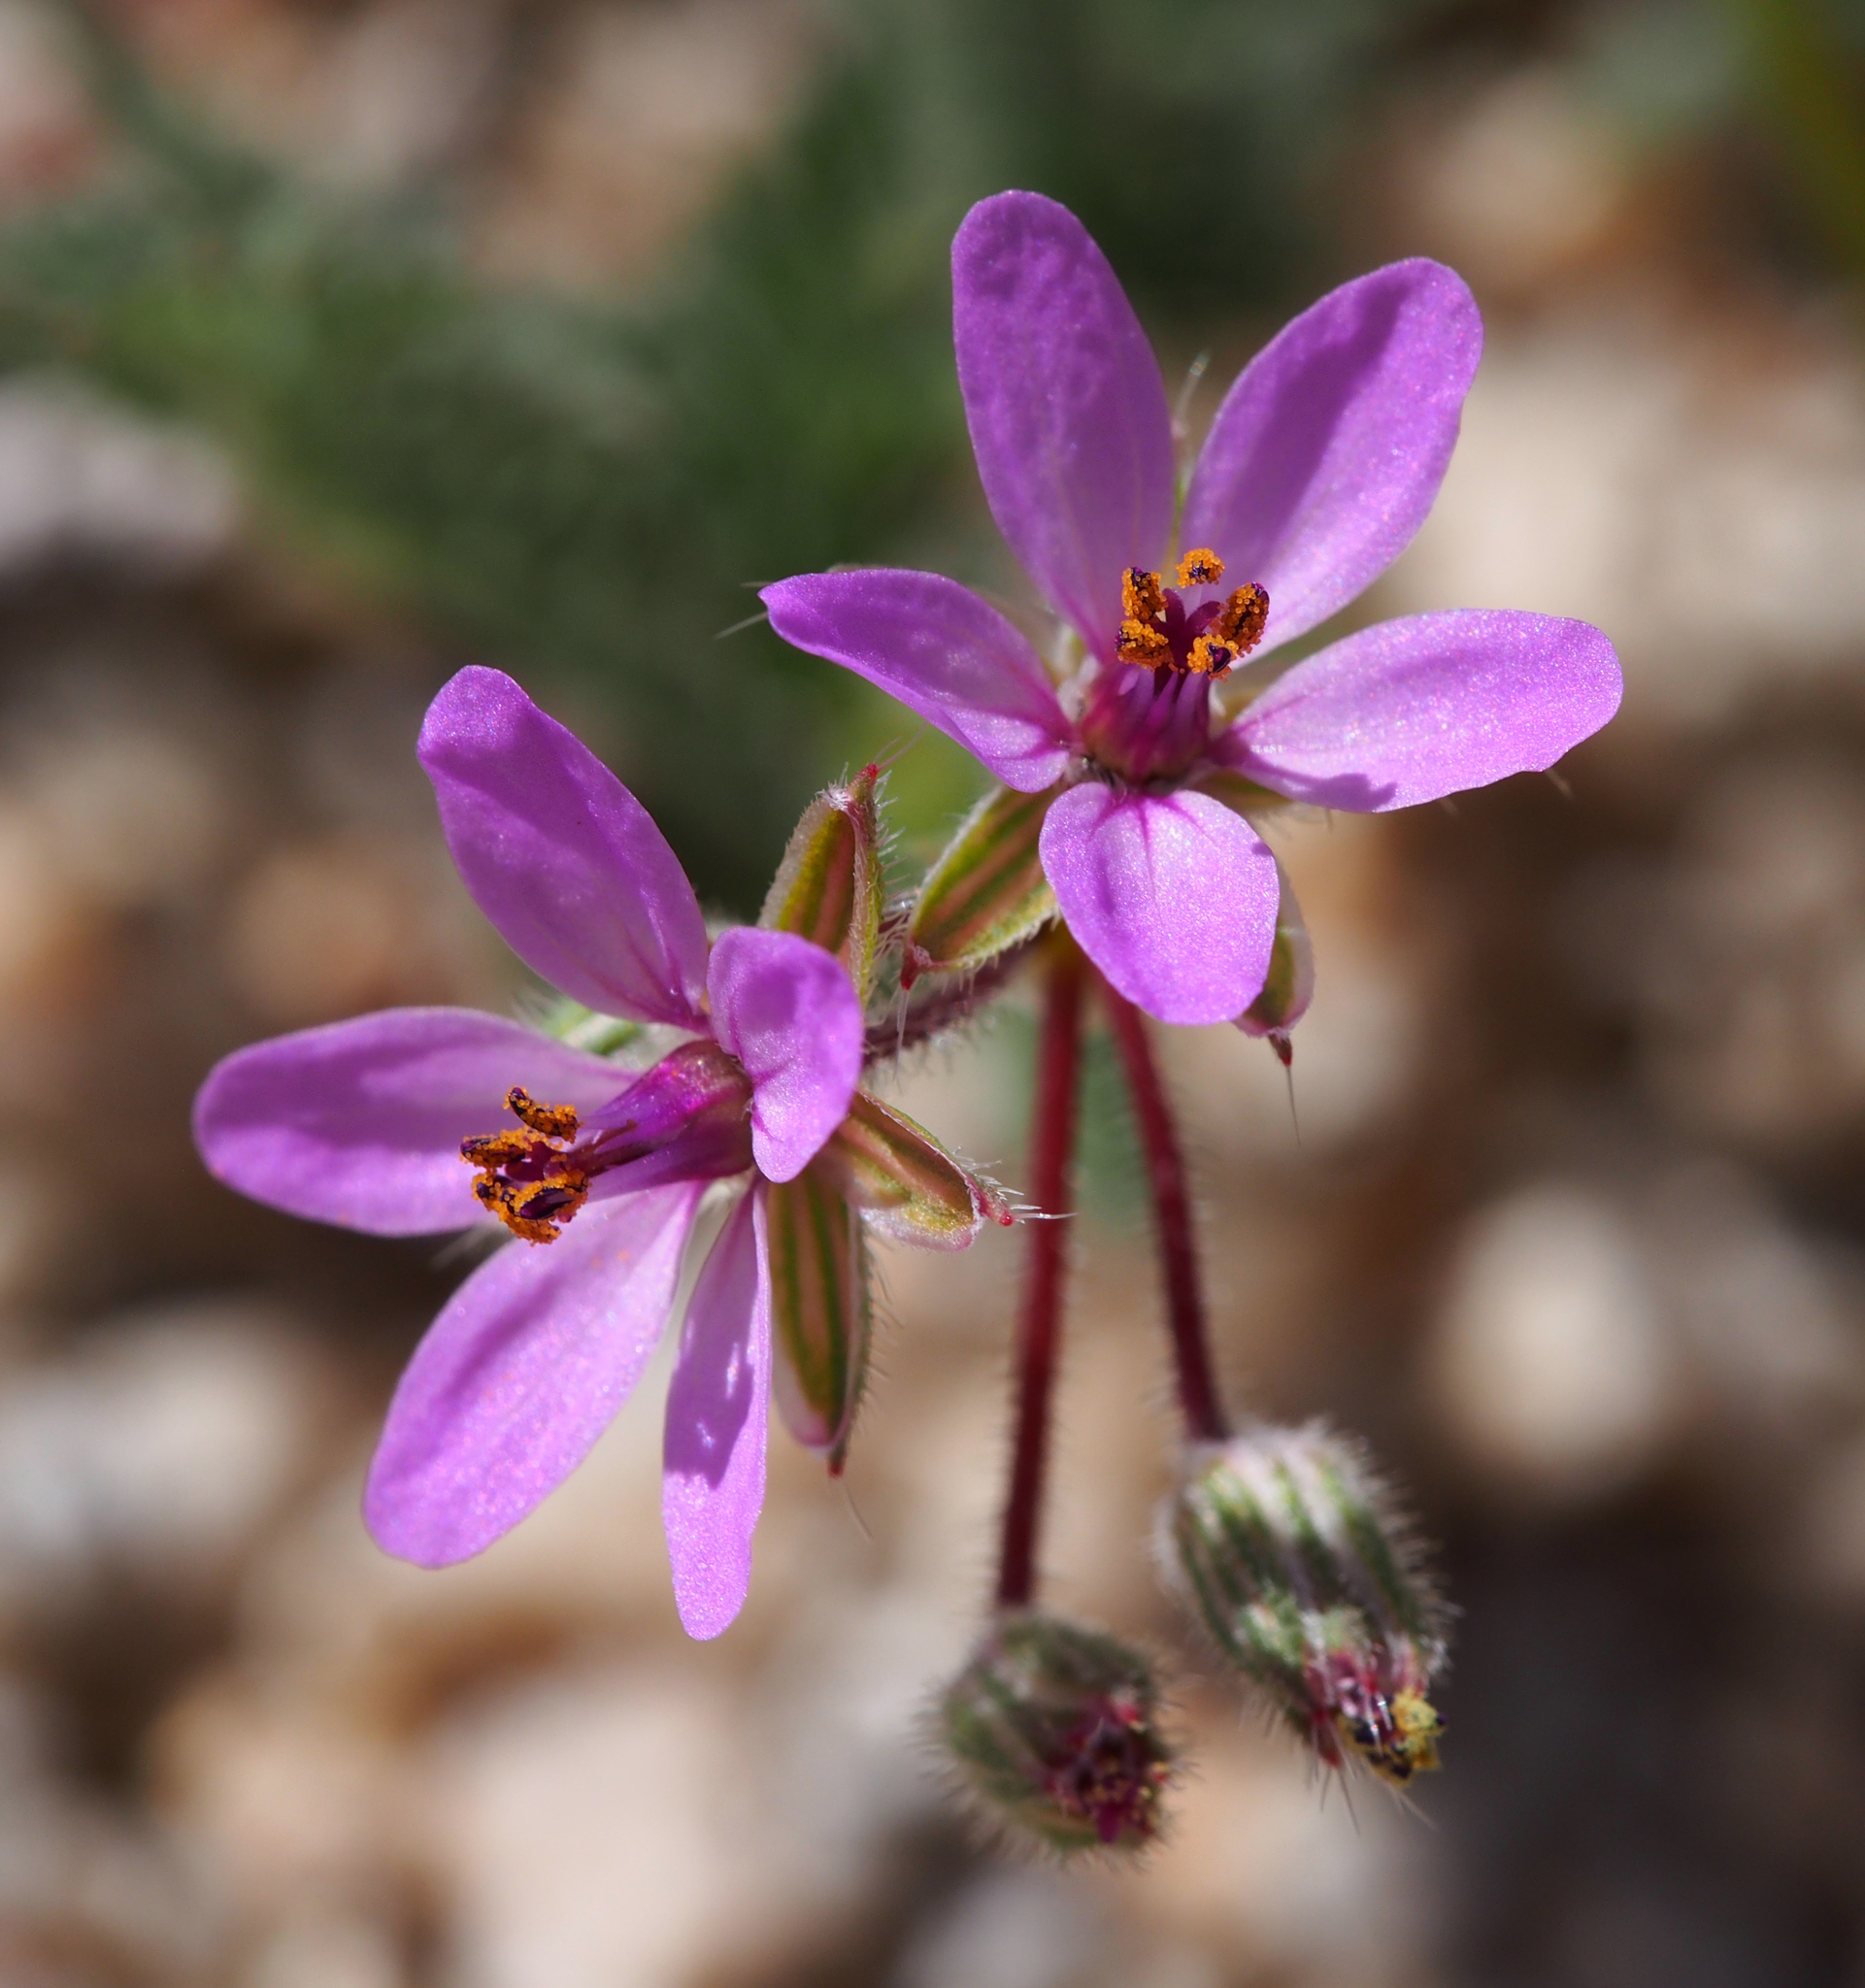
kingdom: Plantae
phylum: Tracheophyta
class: Magnoliopsida
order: Geraniales
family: Geraniaceae
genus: Erodium
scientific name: Erodium cicutarium
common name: Common stork's-bill
